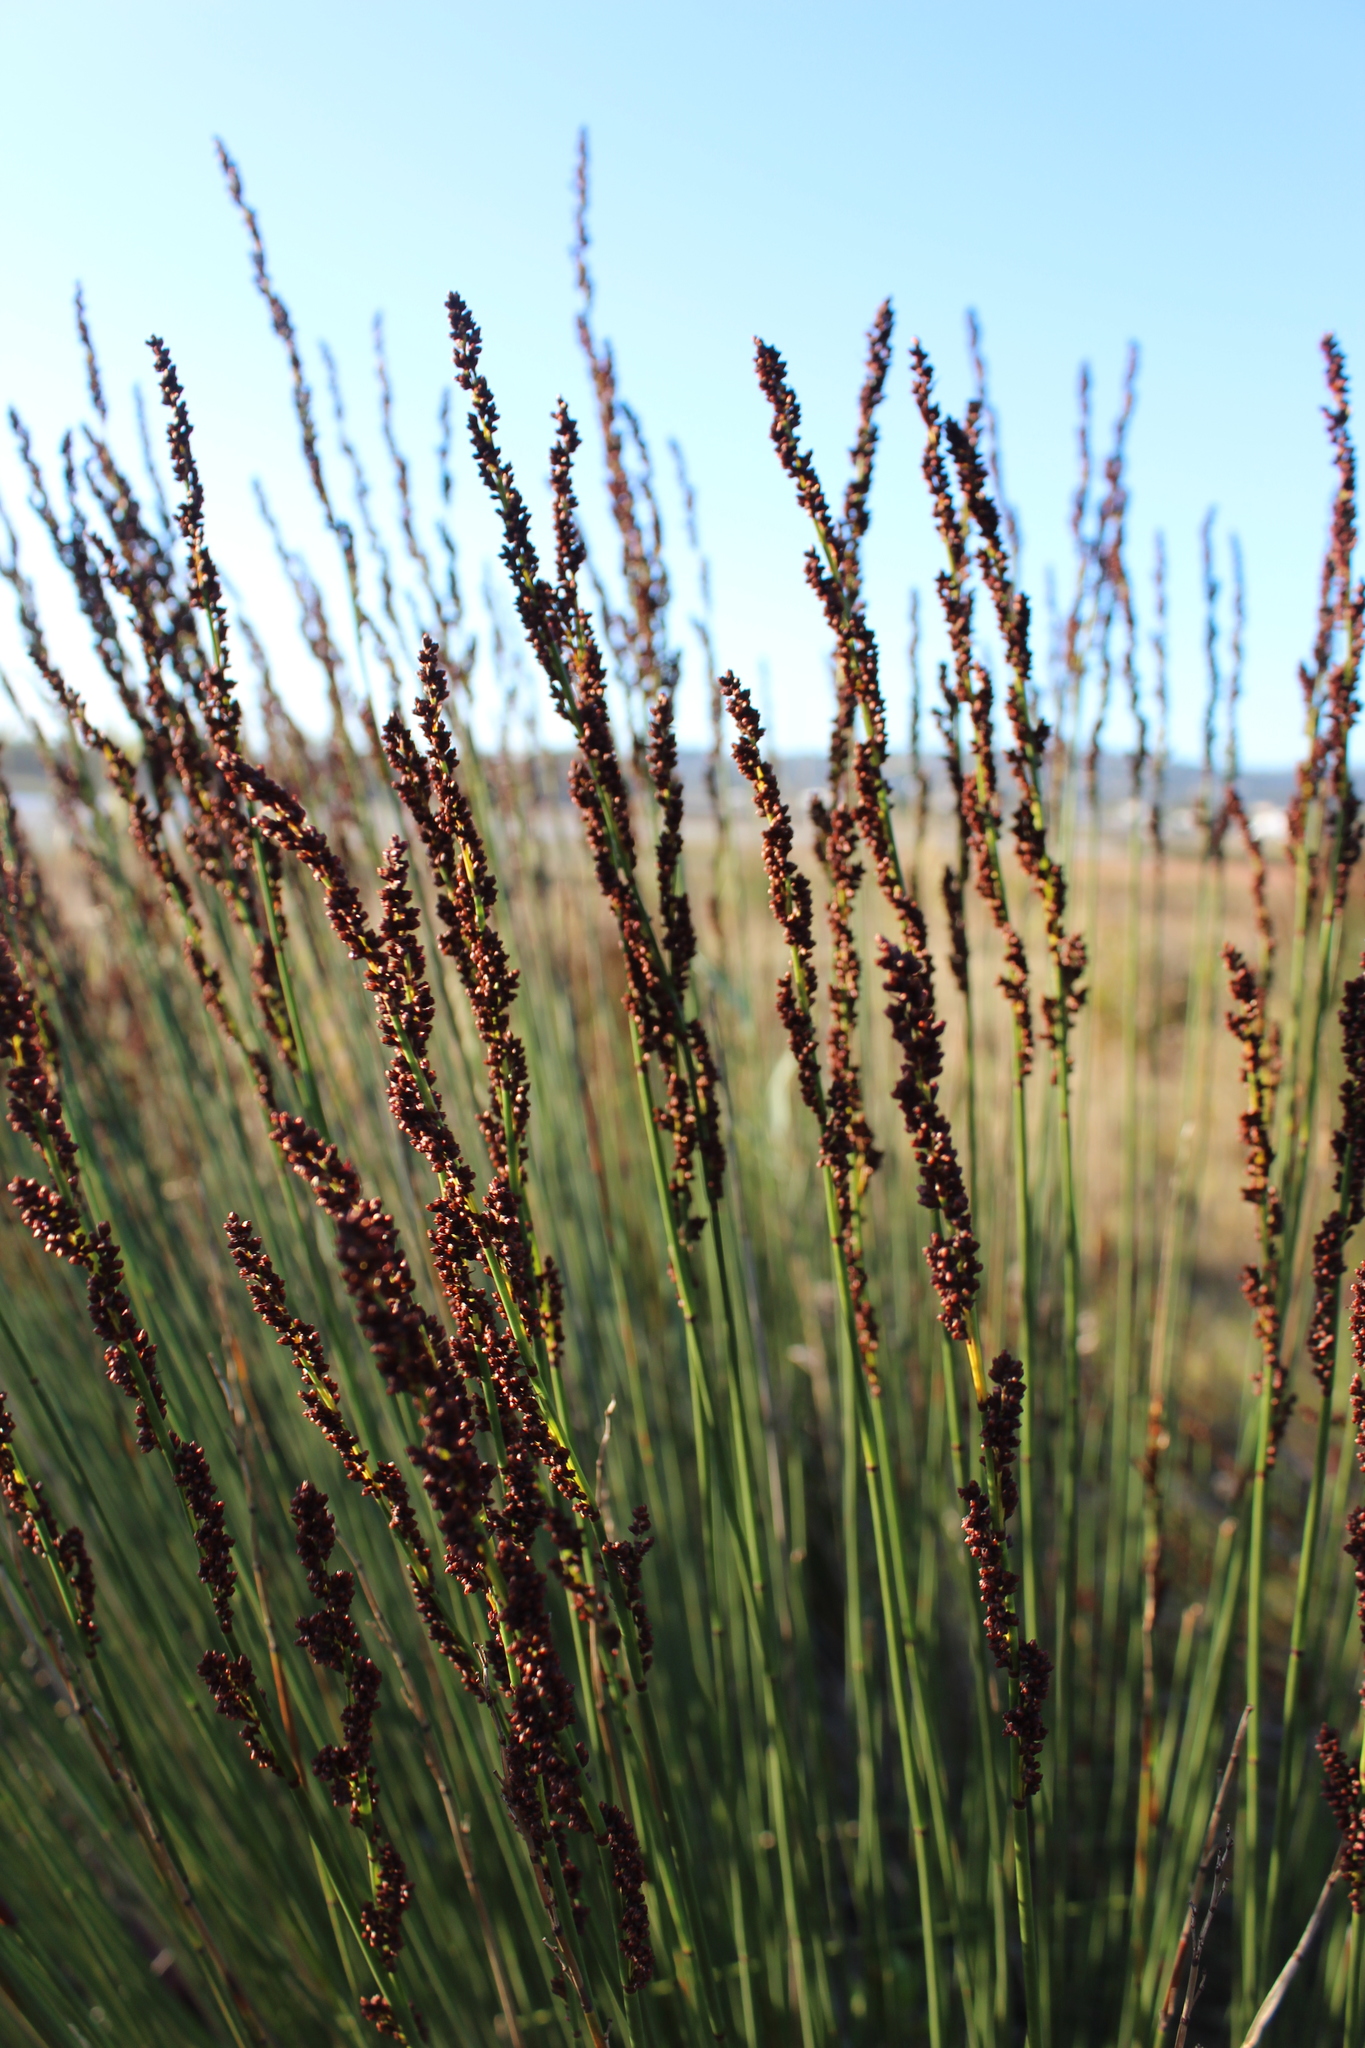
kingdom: Plantae
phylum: Tracheophyta
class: Liliopsida
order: Poales
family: Restionaceae
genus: Elegia
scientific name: Elegia tectorum
